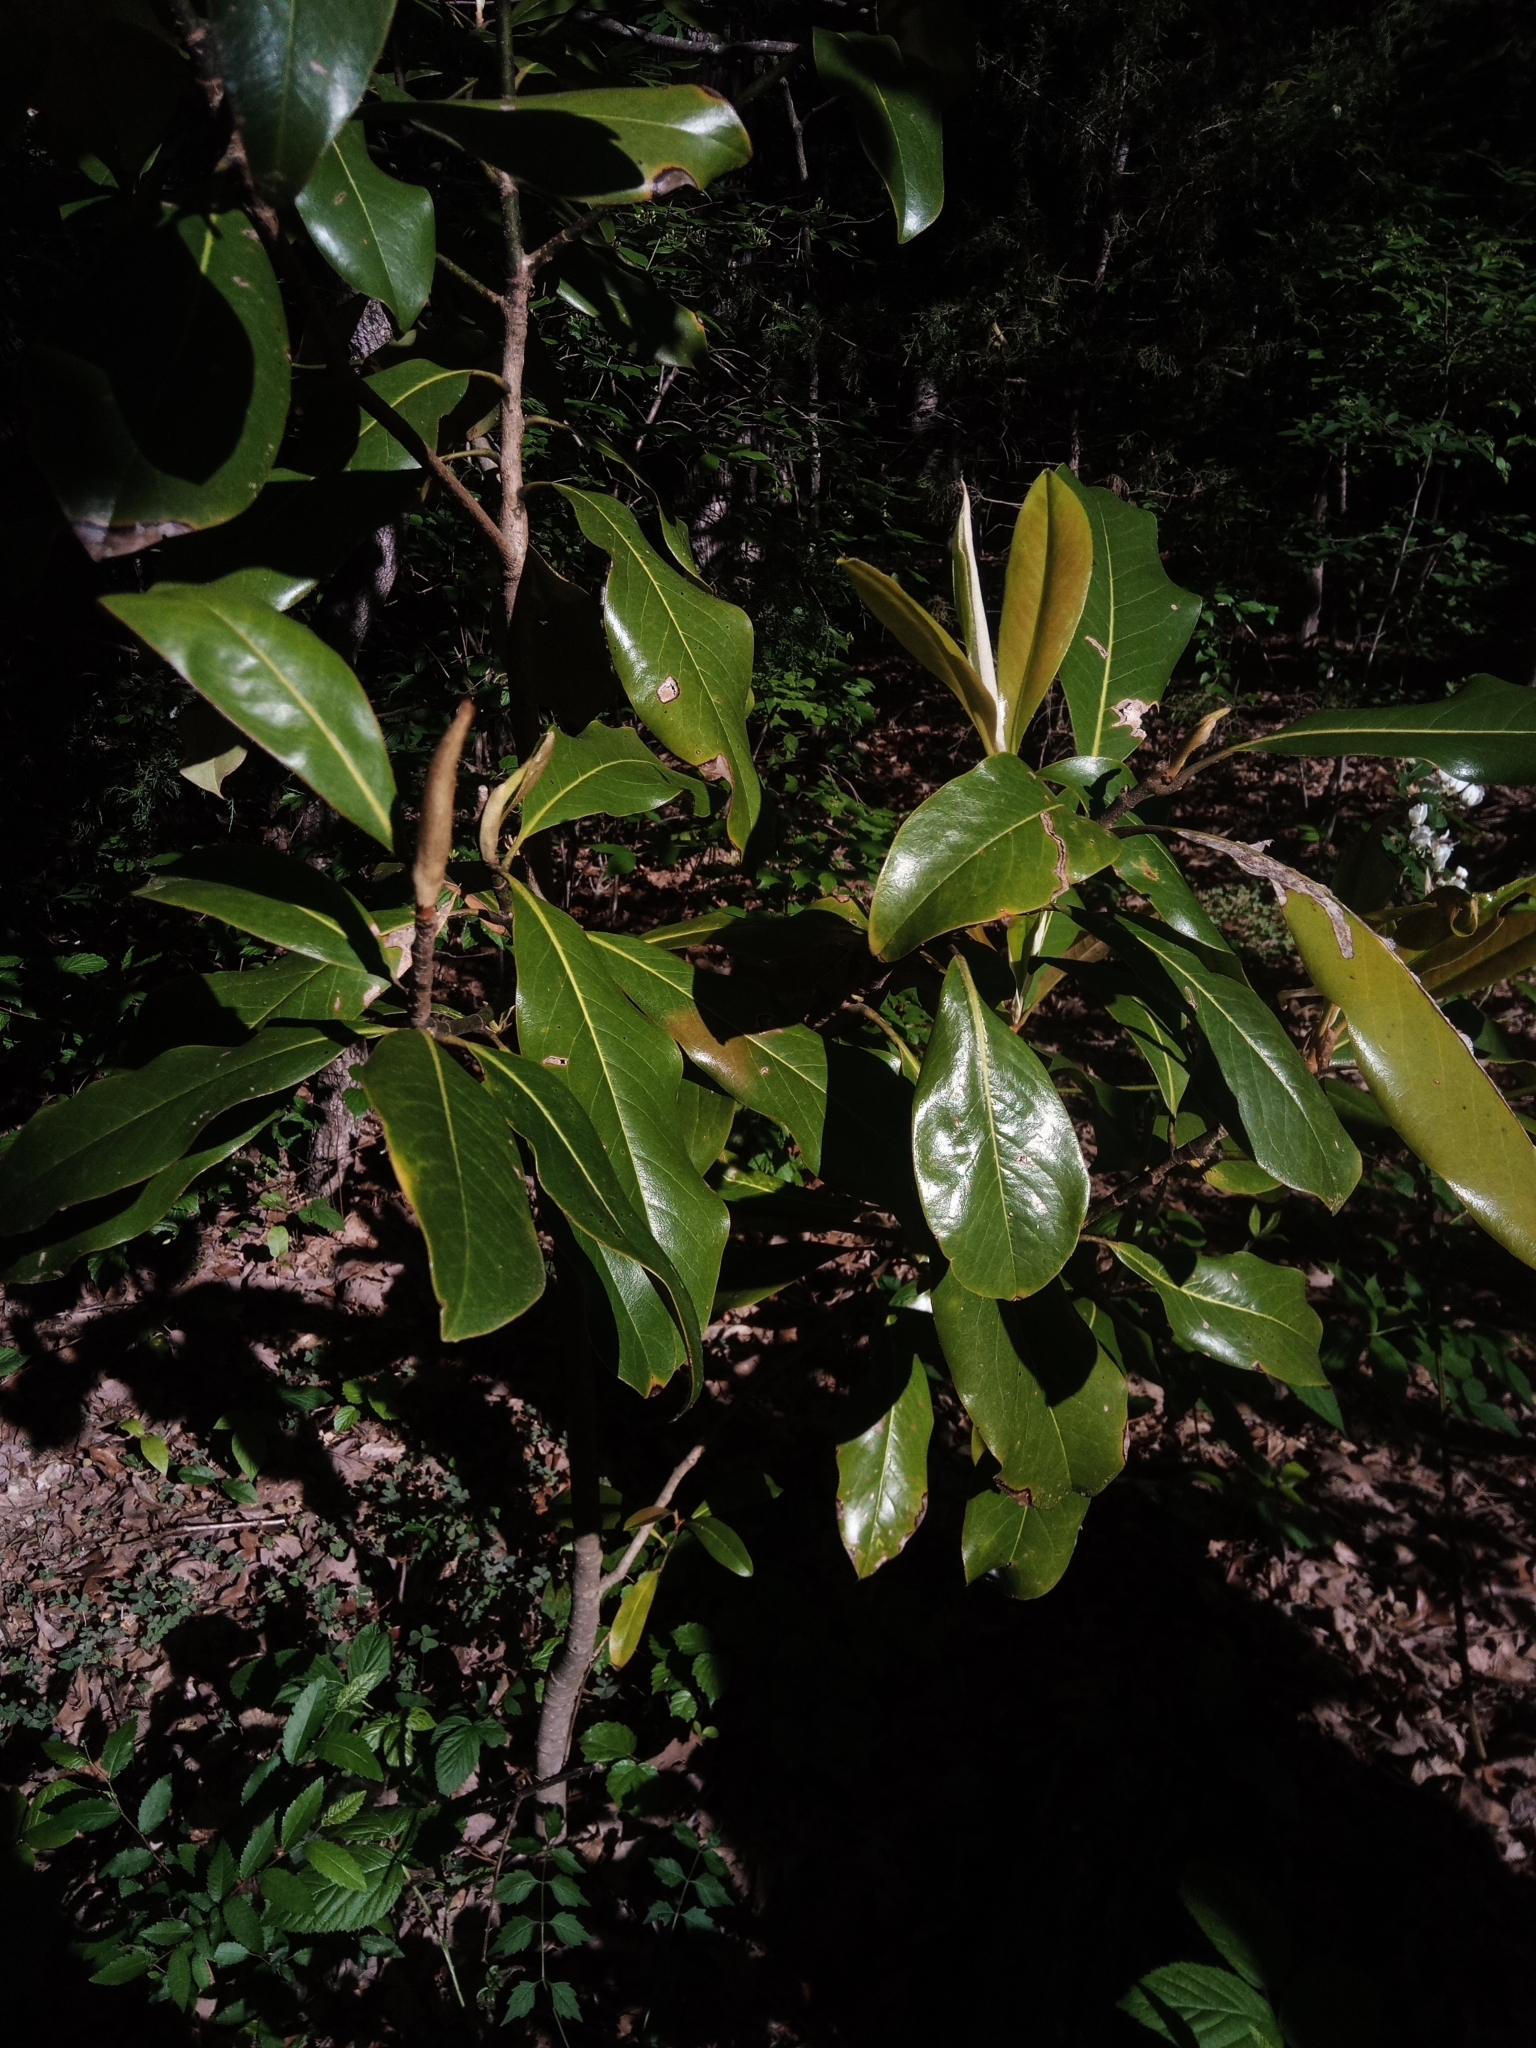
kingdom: Plantae
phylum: Tracheophyta
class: Magnoliopsida
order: Magnoliales
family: Magnoliaceae
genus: Magnolia
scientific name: Magnolia grandiflora
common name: Southern magnolia
